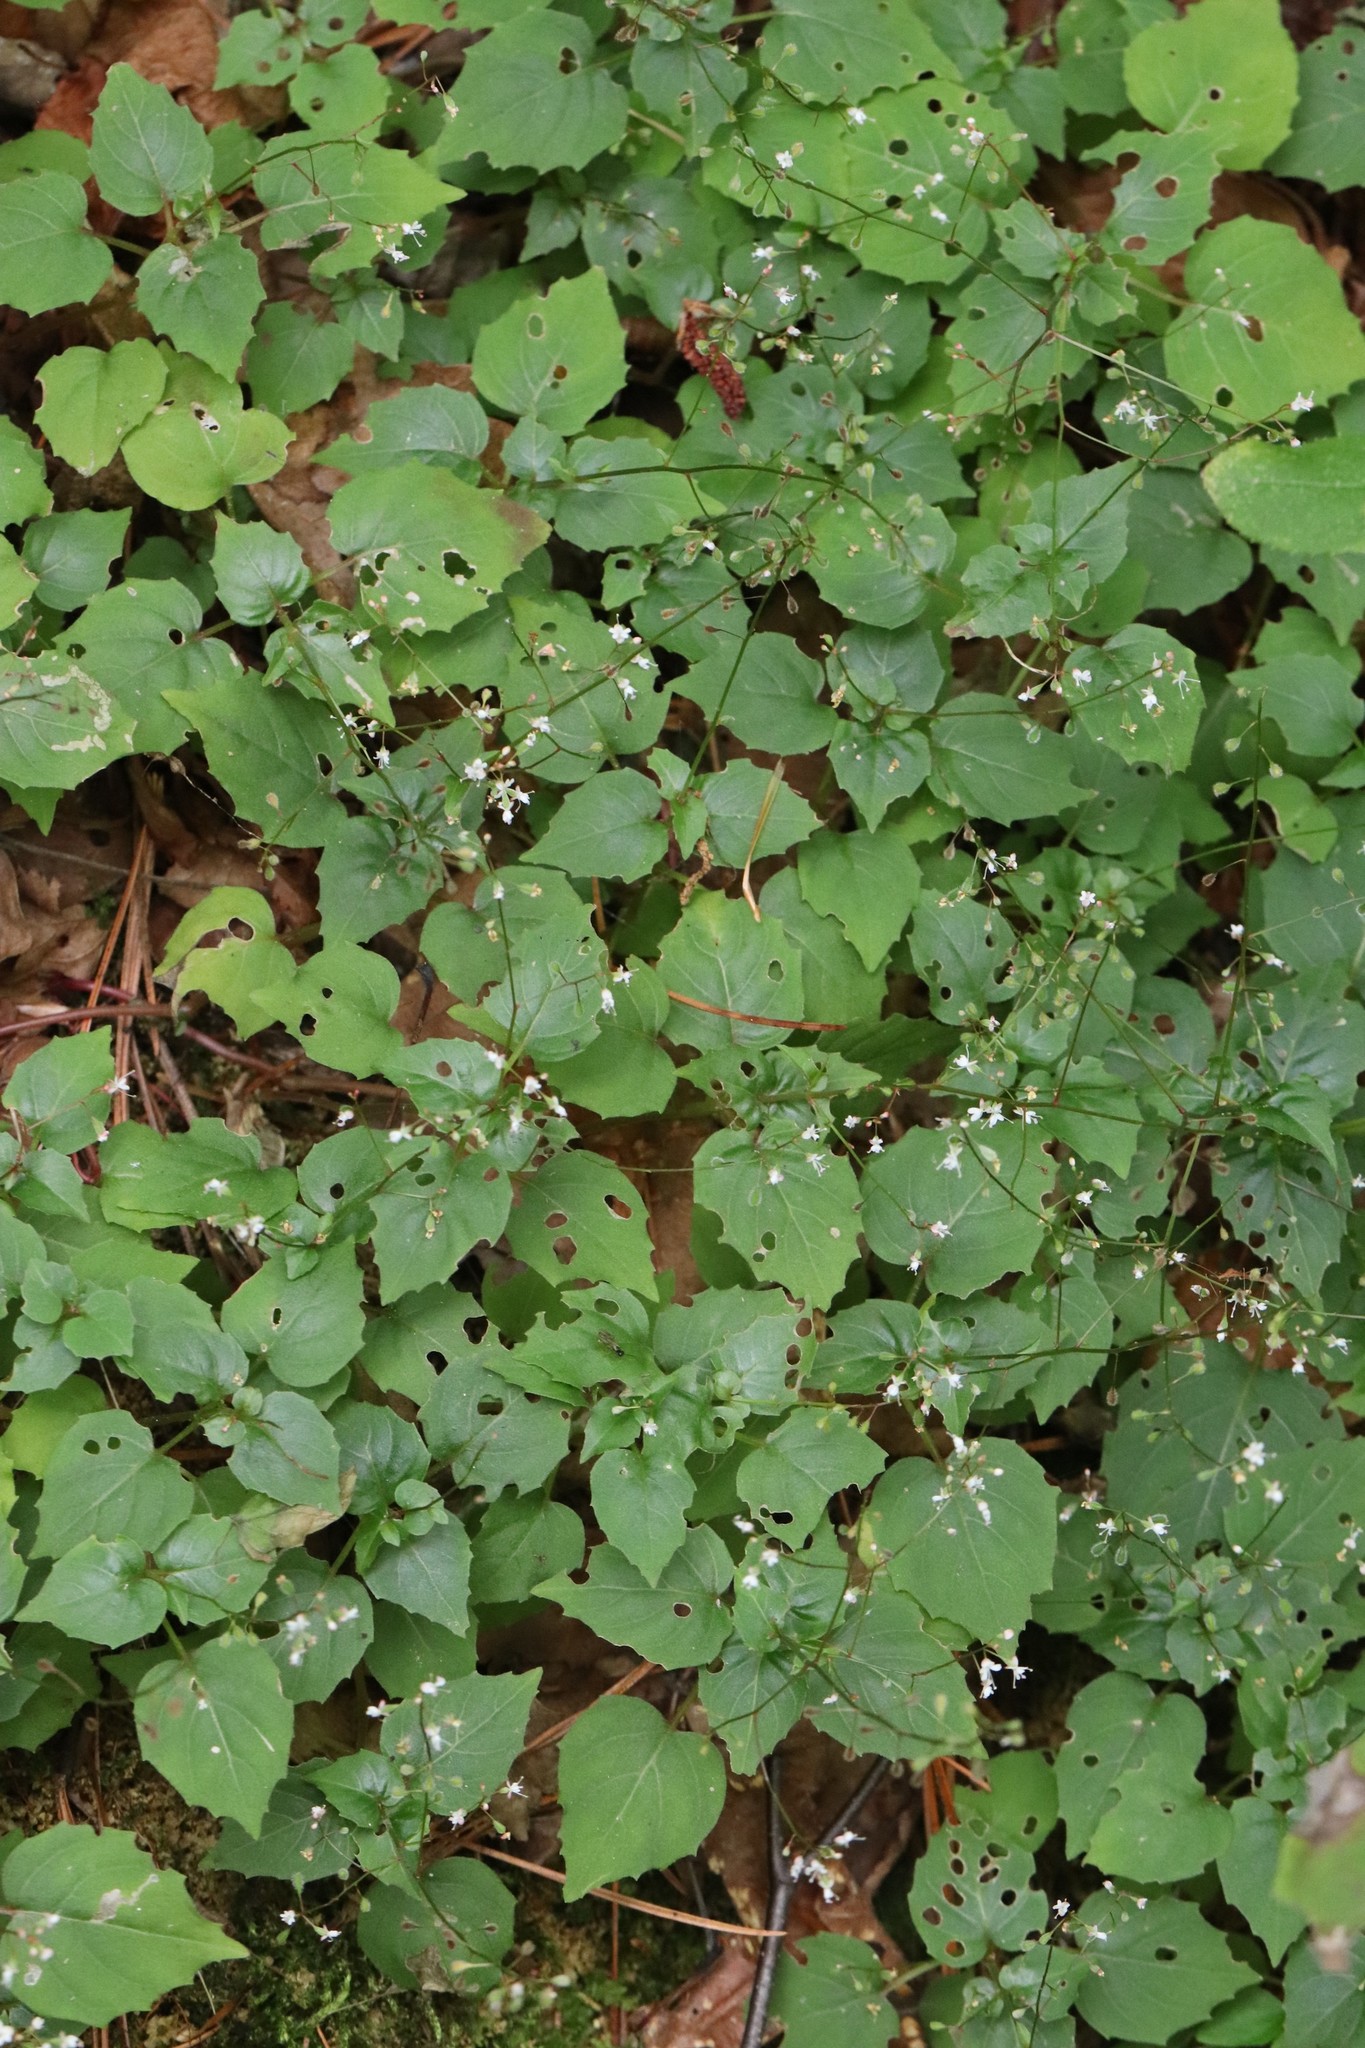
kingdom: Plantae
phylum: Tracheophyta
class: Magnoliopsida
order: Myrtales
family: Onagraceae
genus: Circaea
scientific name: Circaea alpina
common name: Alpine enchanter's-nightshade
